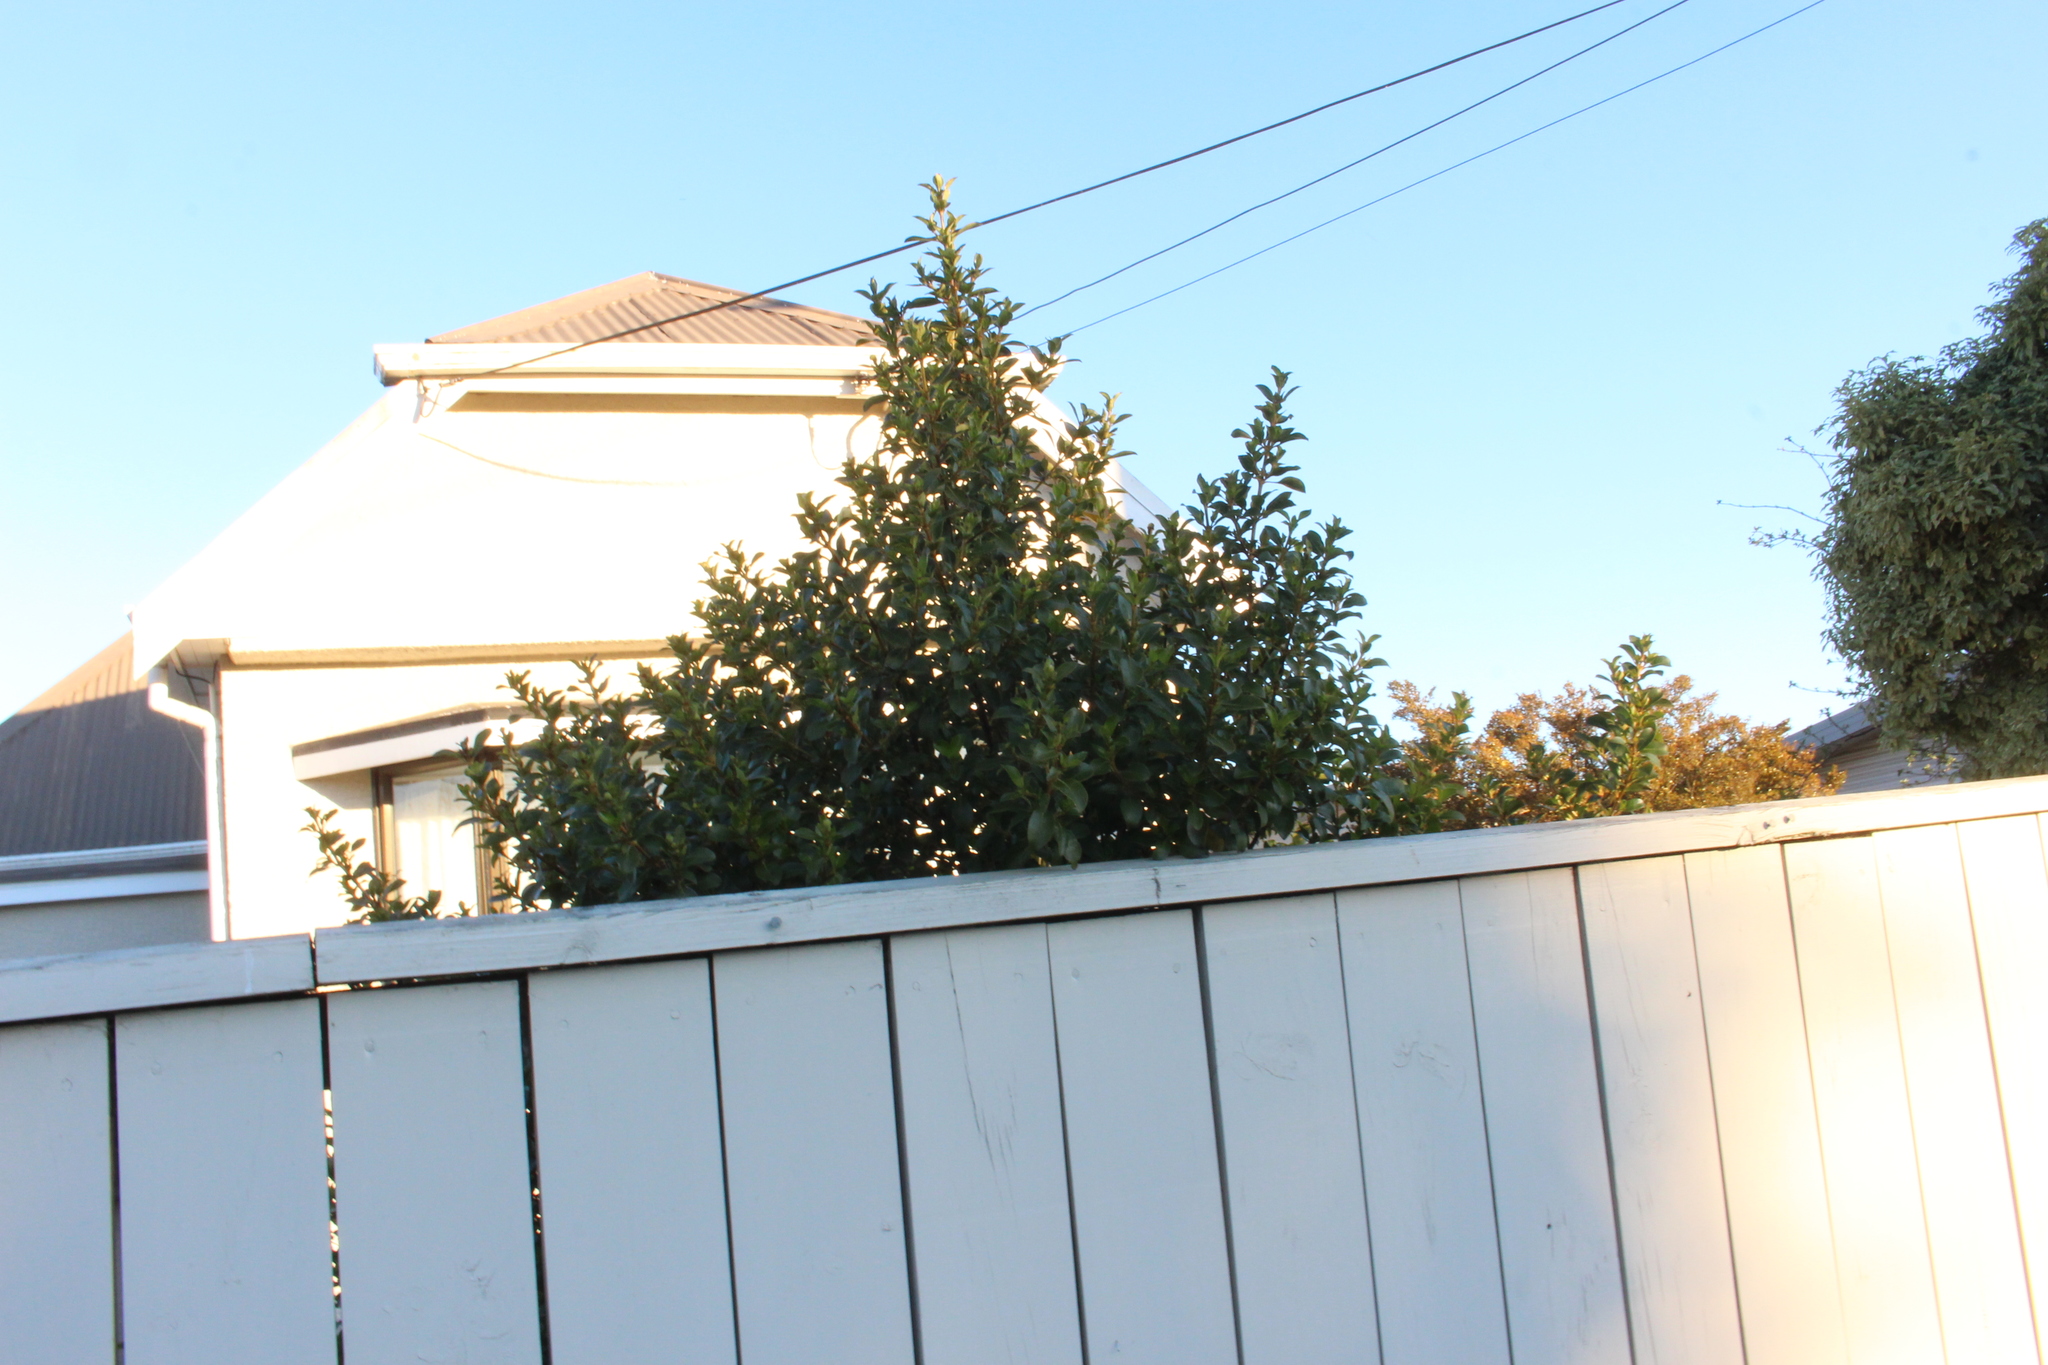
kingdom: Plantae
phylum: Tracheophyta
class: Magnoliopsida
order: Gentianales
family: Rubiaceae
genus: Coprosma
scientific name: Coprosma robusta
